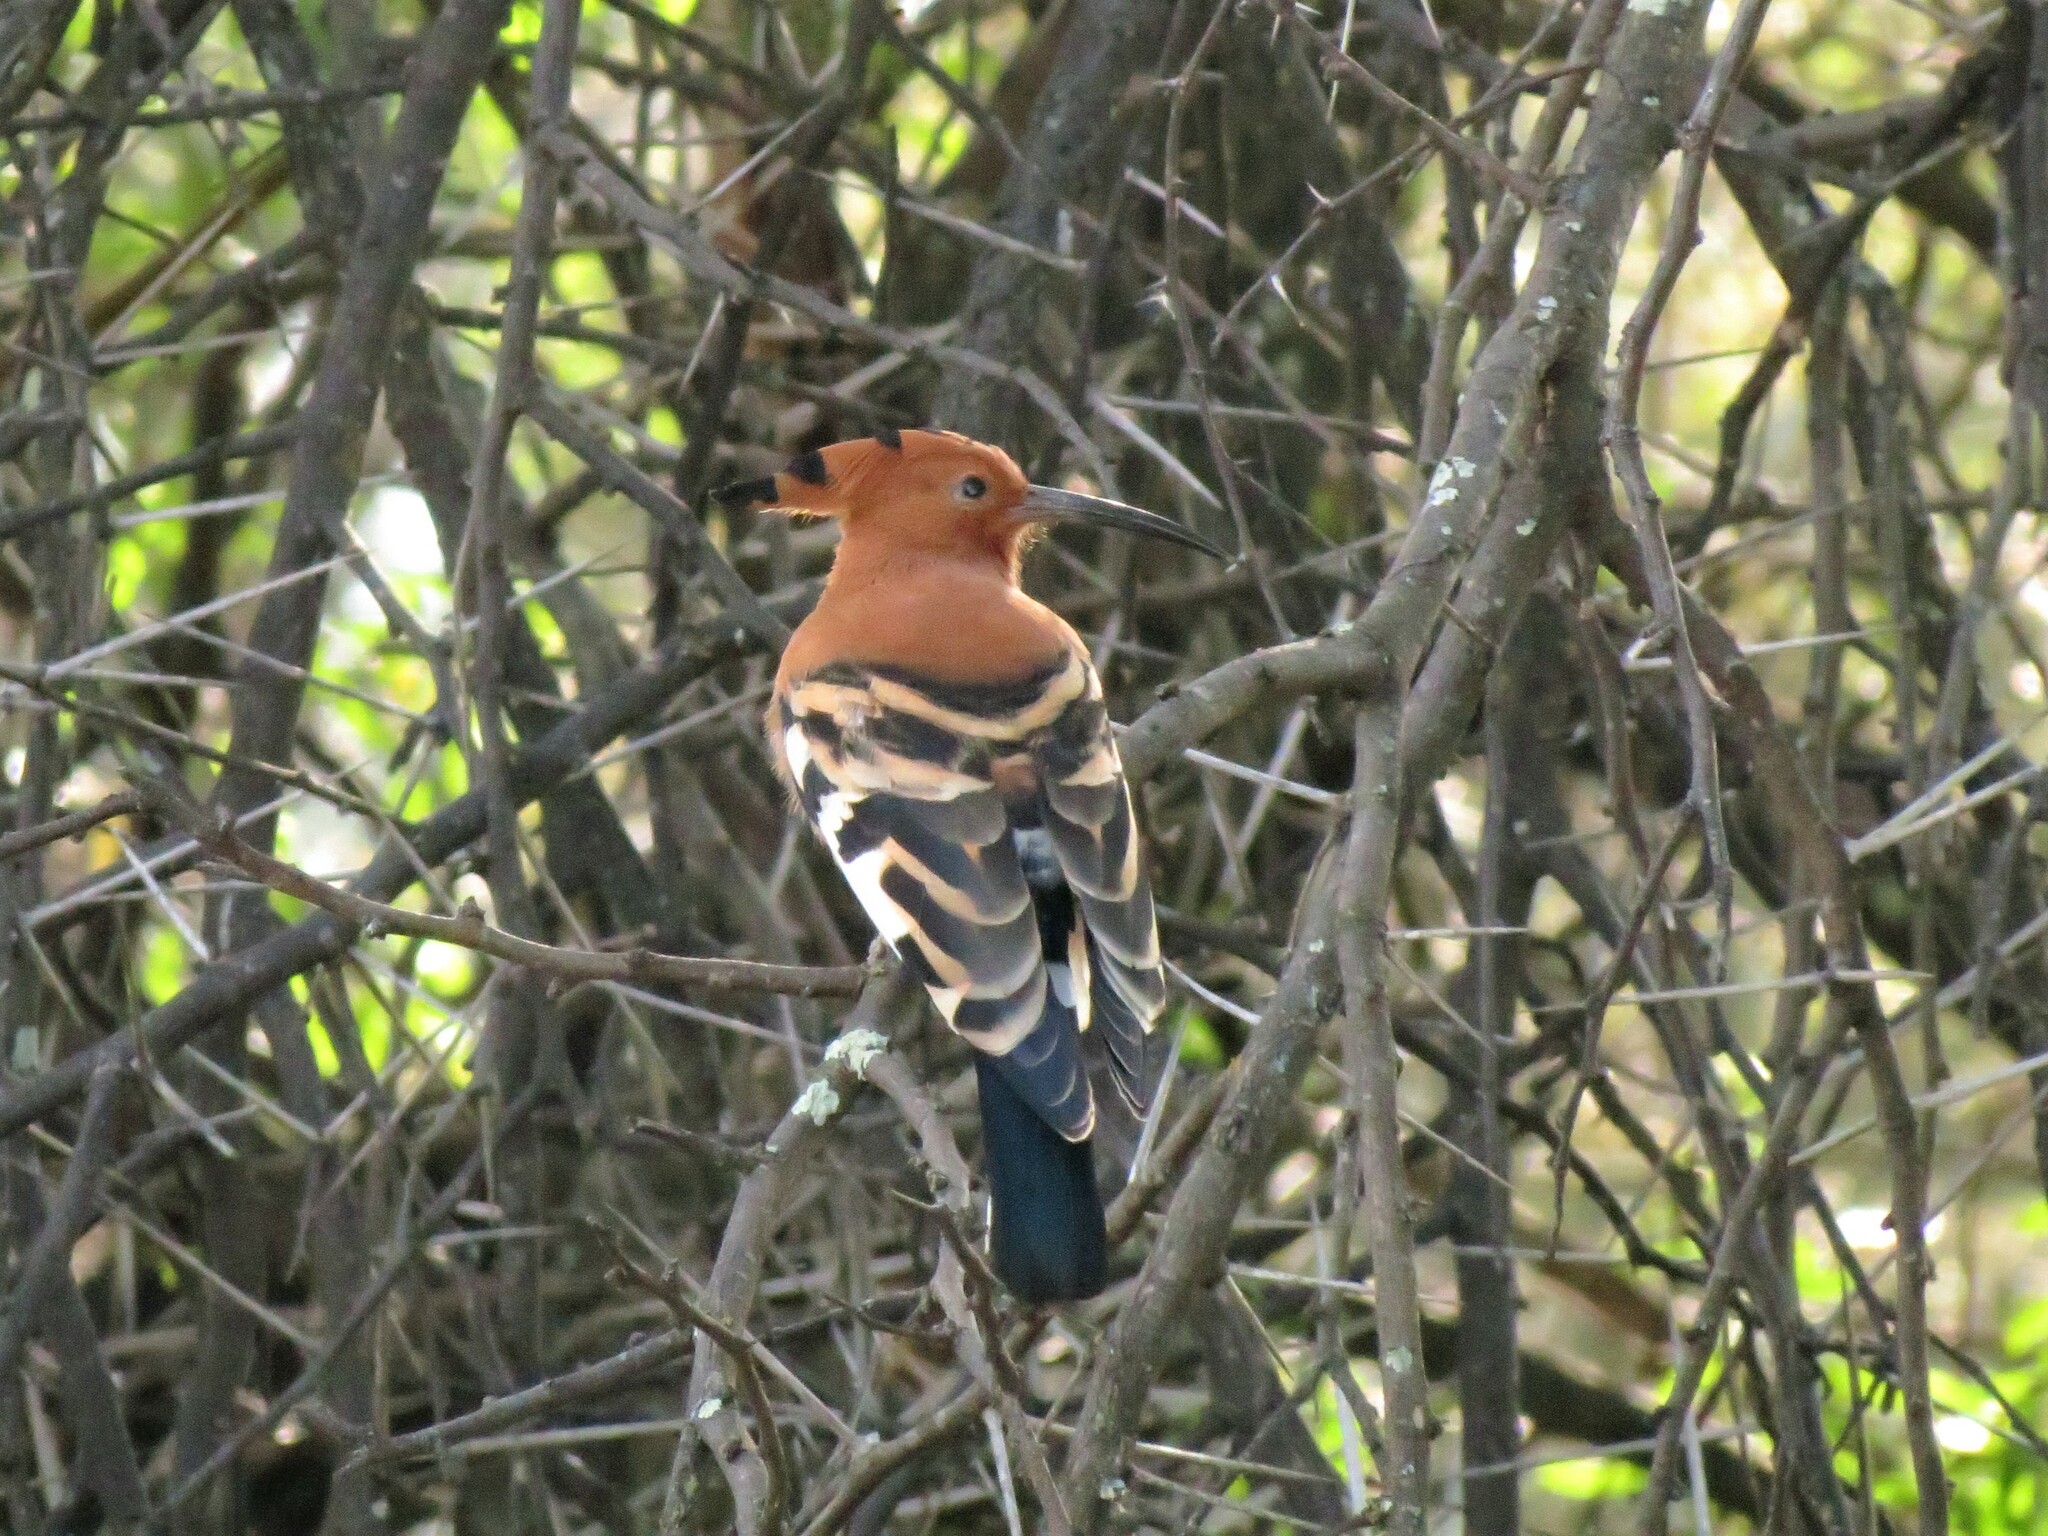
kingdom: Animalia
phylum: Chordata
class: Aves
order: Bucerotiformes
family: Upupidae
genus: Upupa
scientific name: Upupa africana
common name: African hoopoe
